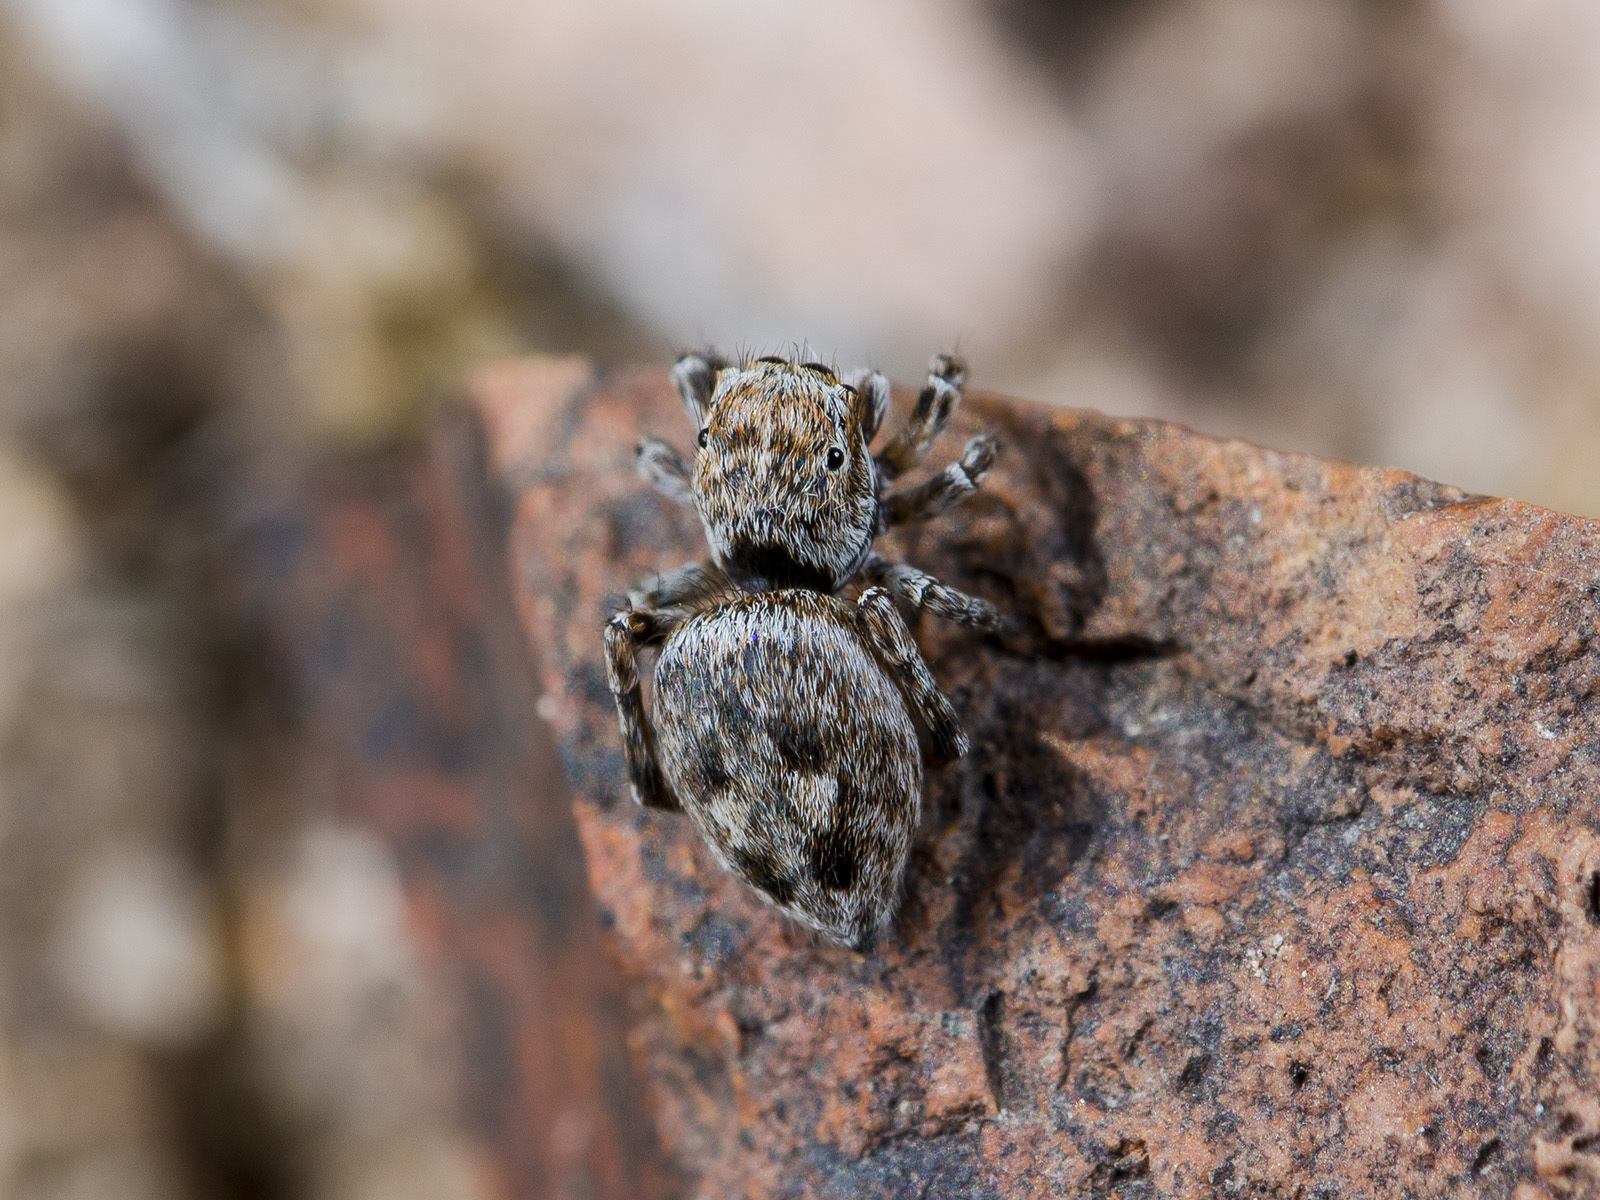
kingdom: Animalia
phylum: Arthropoda
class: Arachnida
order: Araneae
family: Salticidae
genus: Attulus
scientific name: Attulus mirandus
